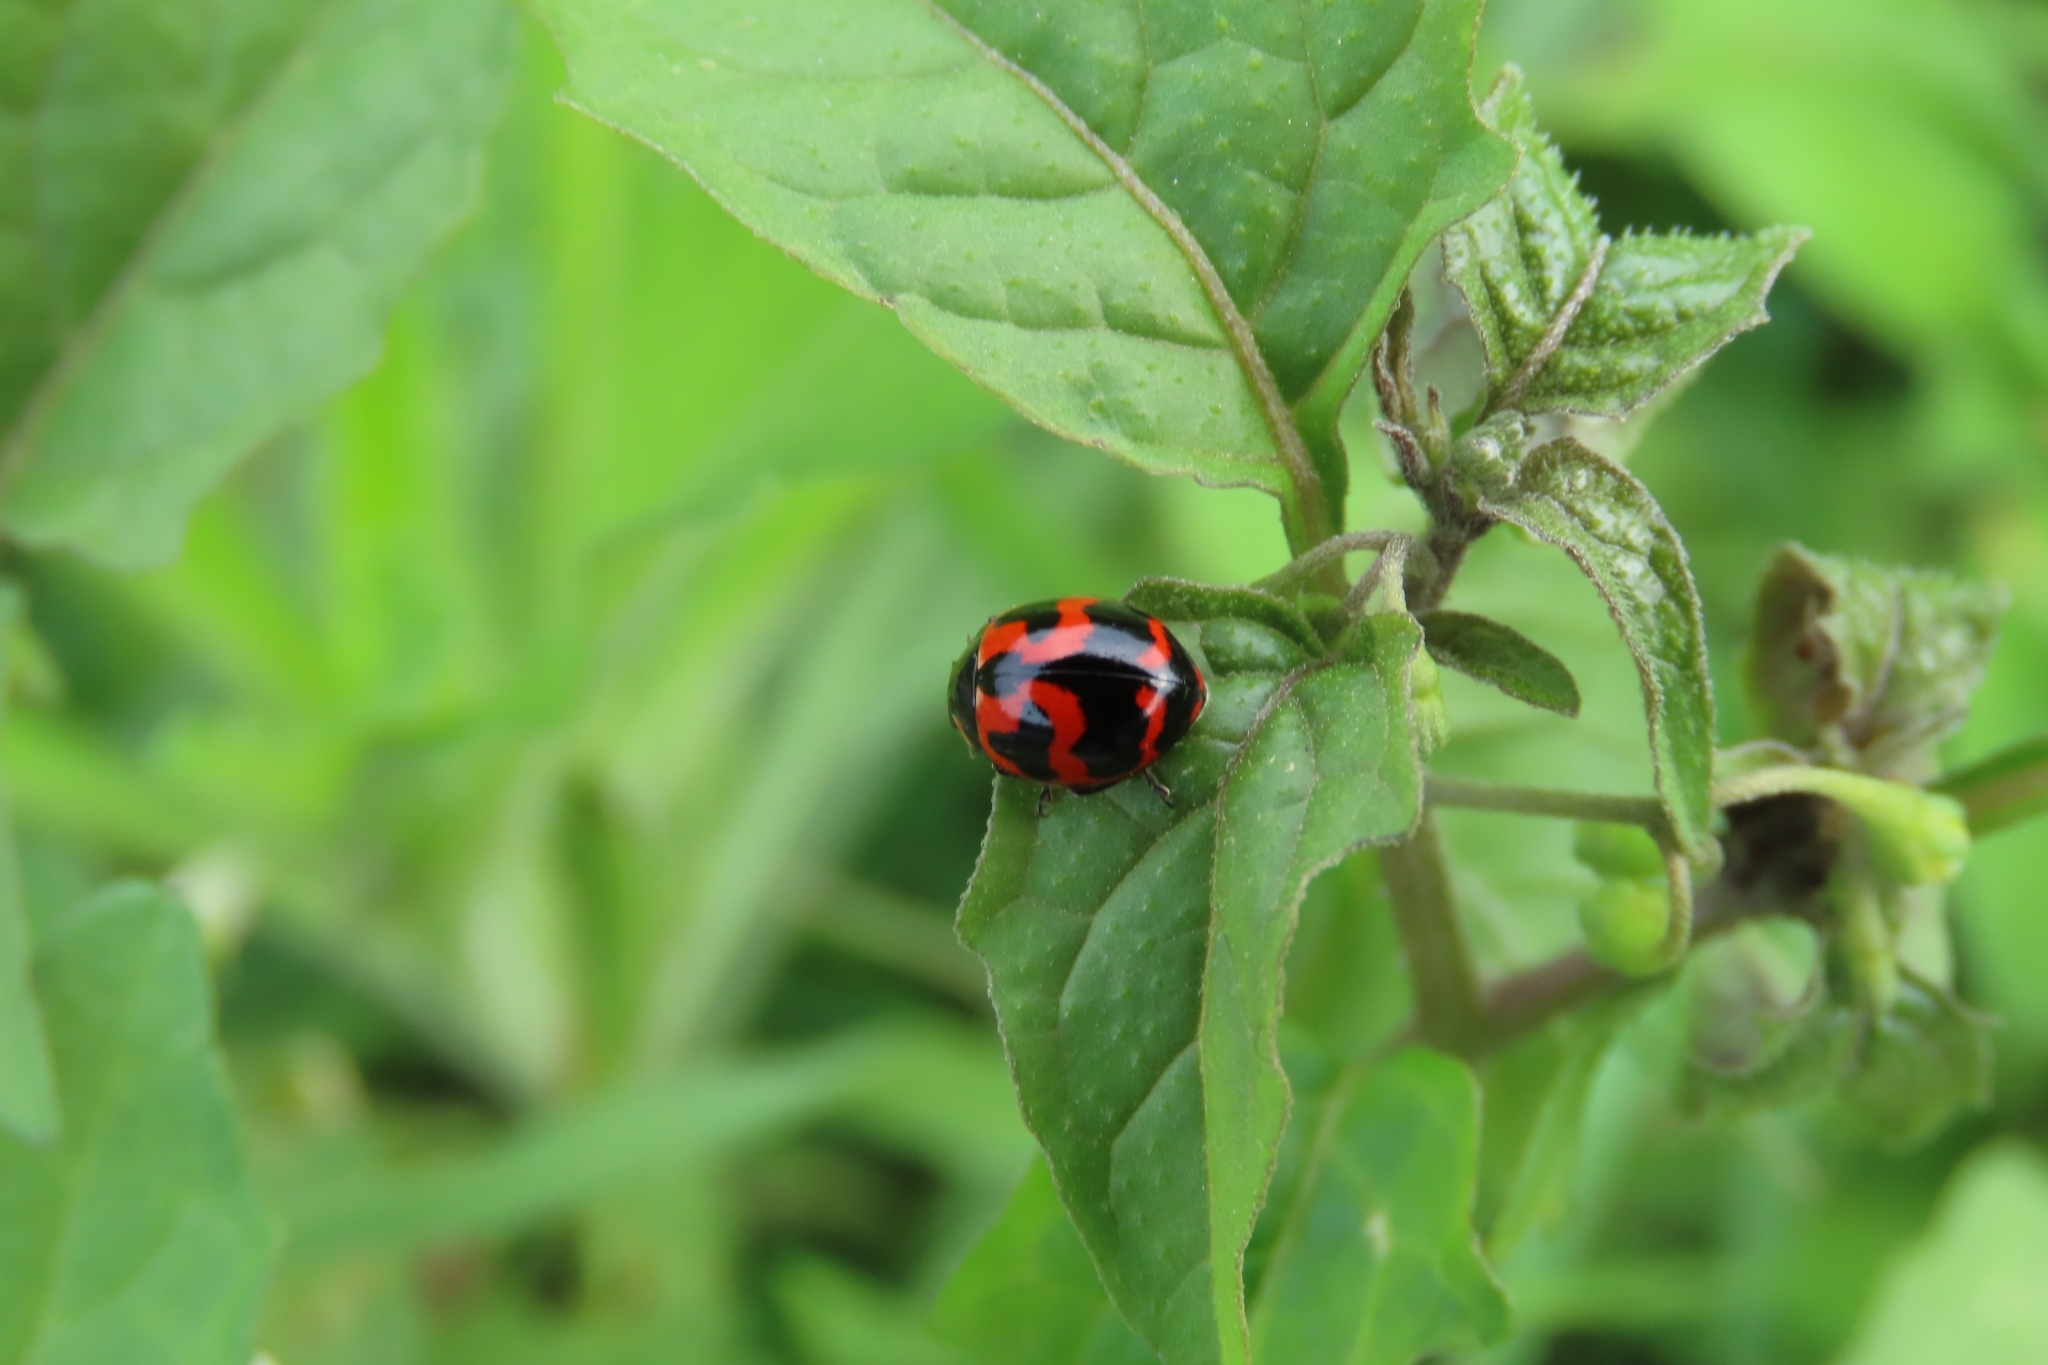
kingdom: Animalia
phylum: Arthropoda
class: Insecta
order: Coleoptera
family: Coccinellidae
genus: Coccinella
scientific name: Coccinella transversalis
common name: Transverse lady beetle
